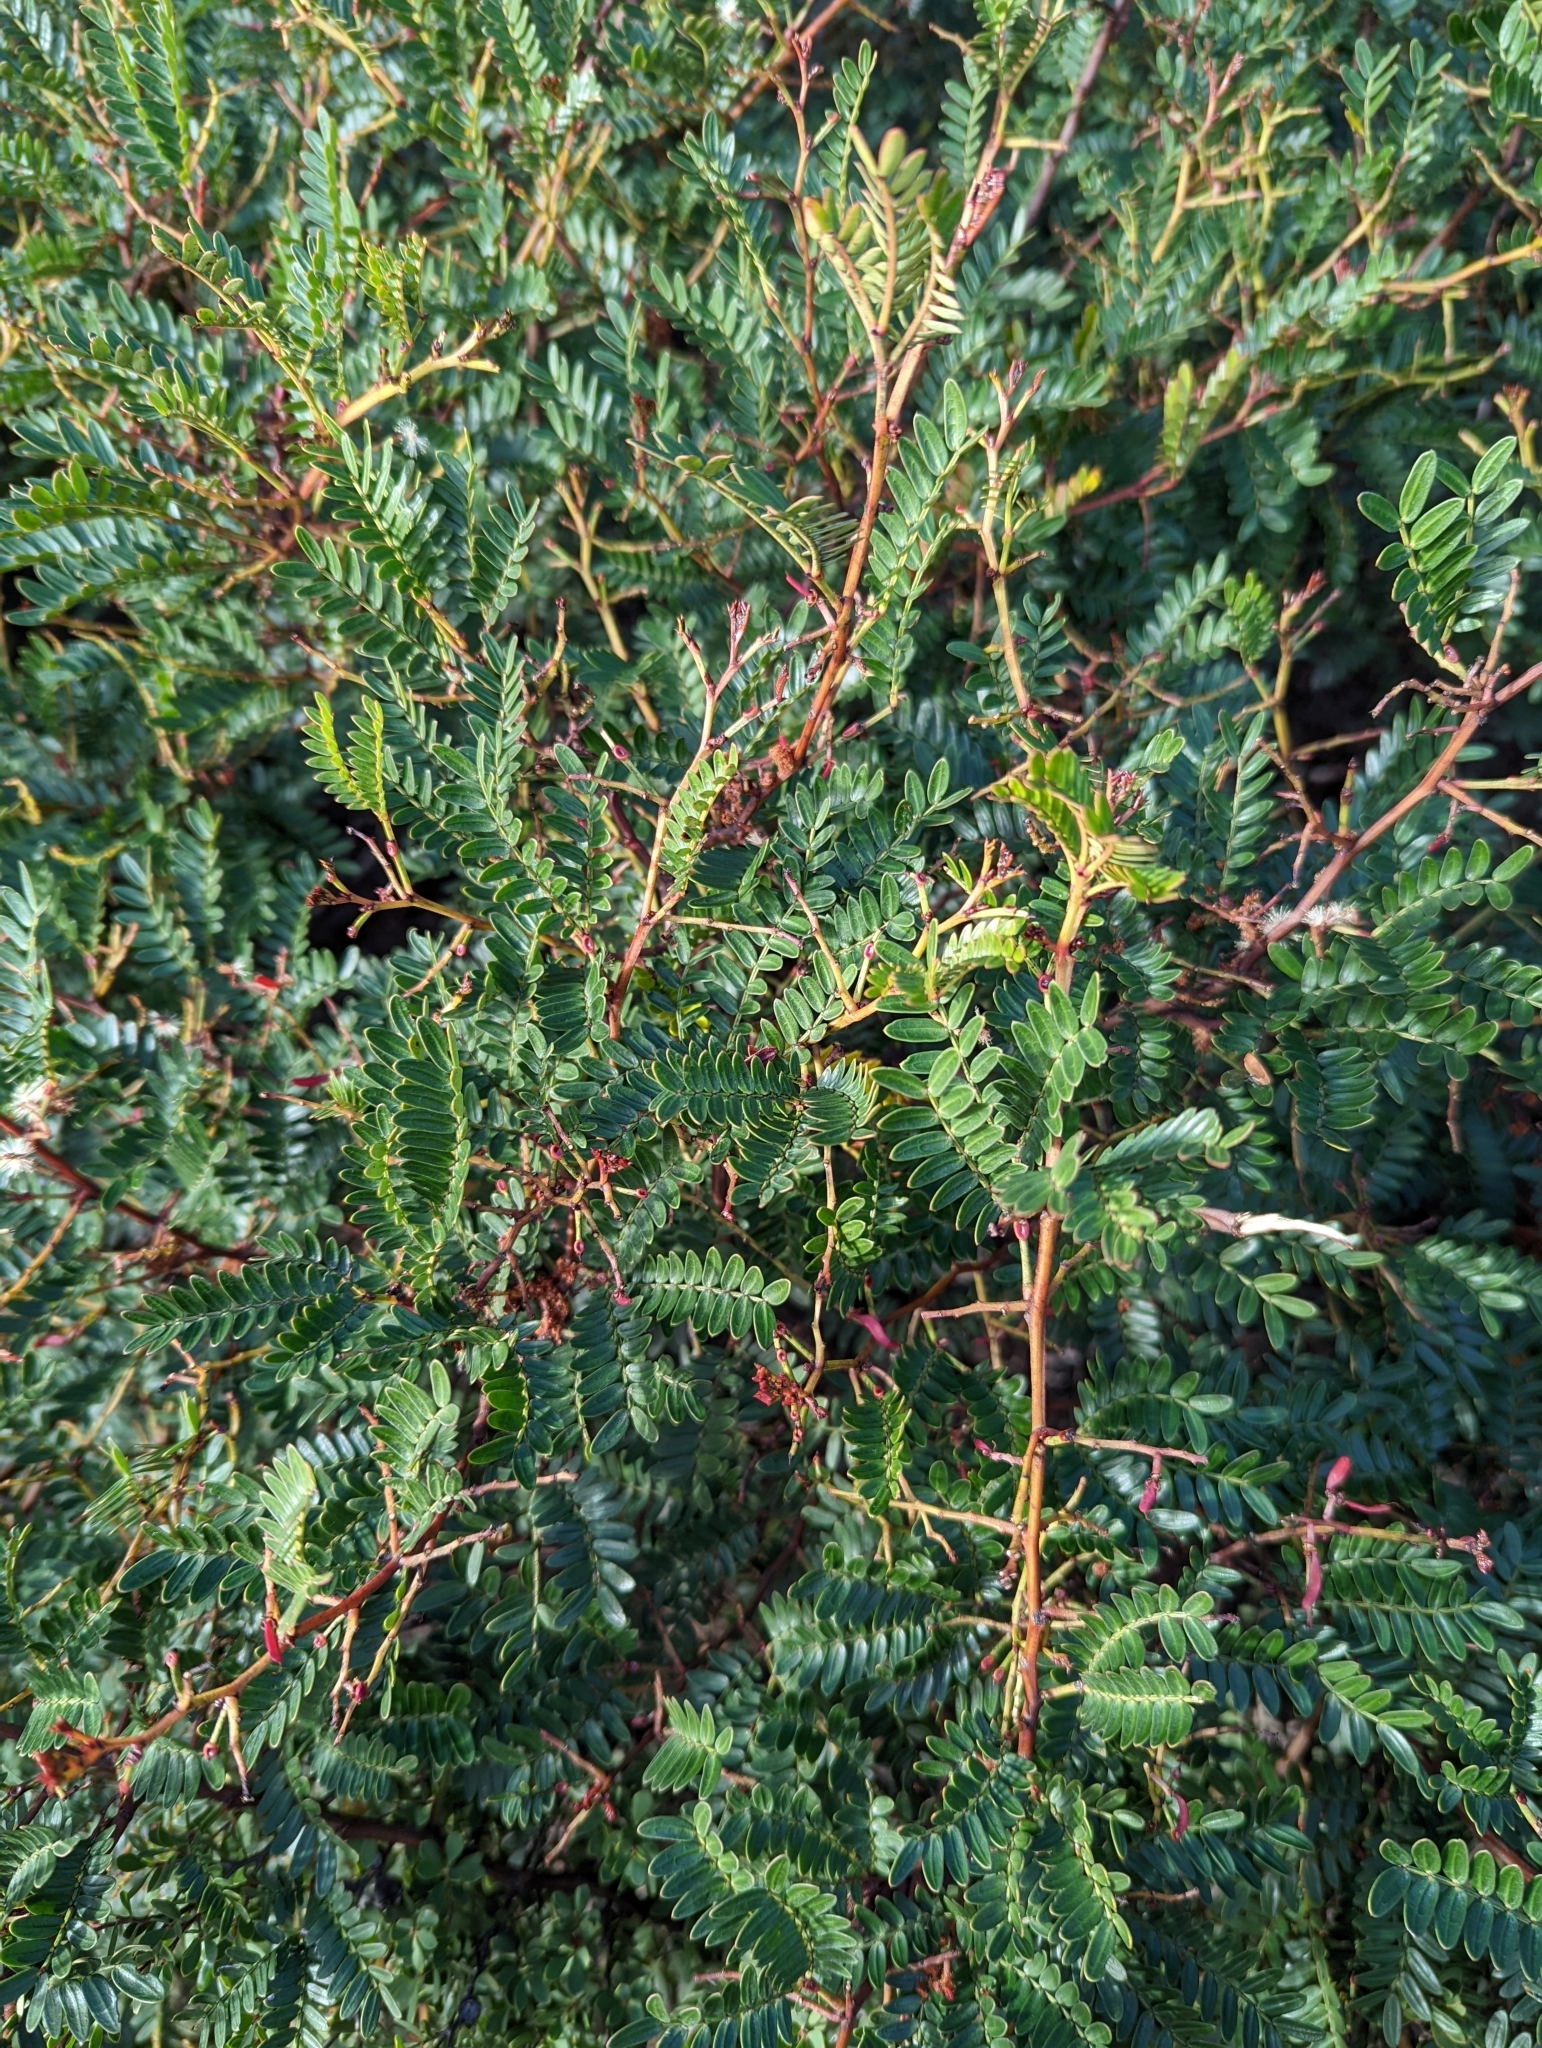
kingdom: Plantae
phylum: Tracheophyta
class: Magnoliopsida
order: Fabales
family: Fabaceae
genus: Acacia
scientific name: Acacia terminalis
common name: Cedar wattle
